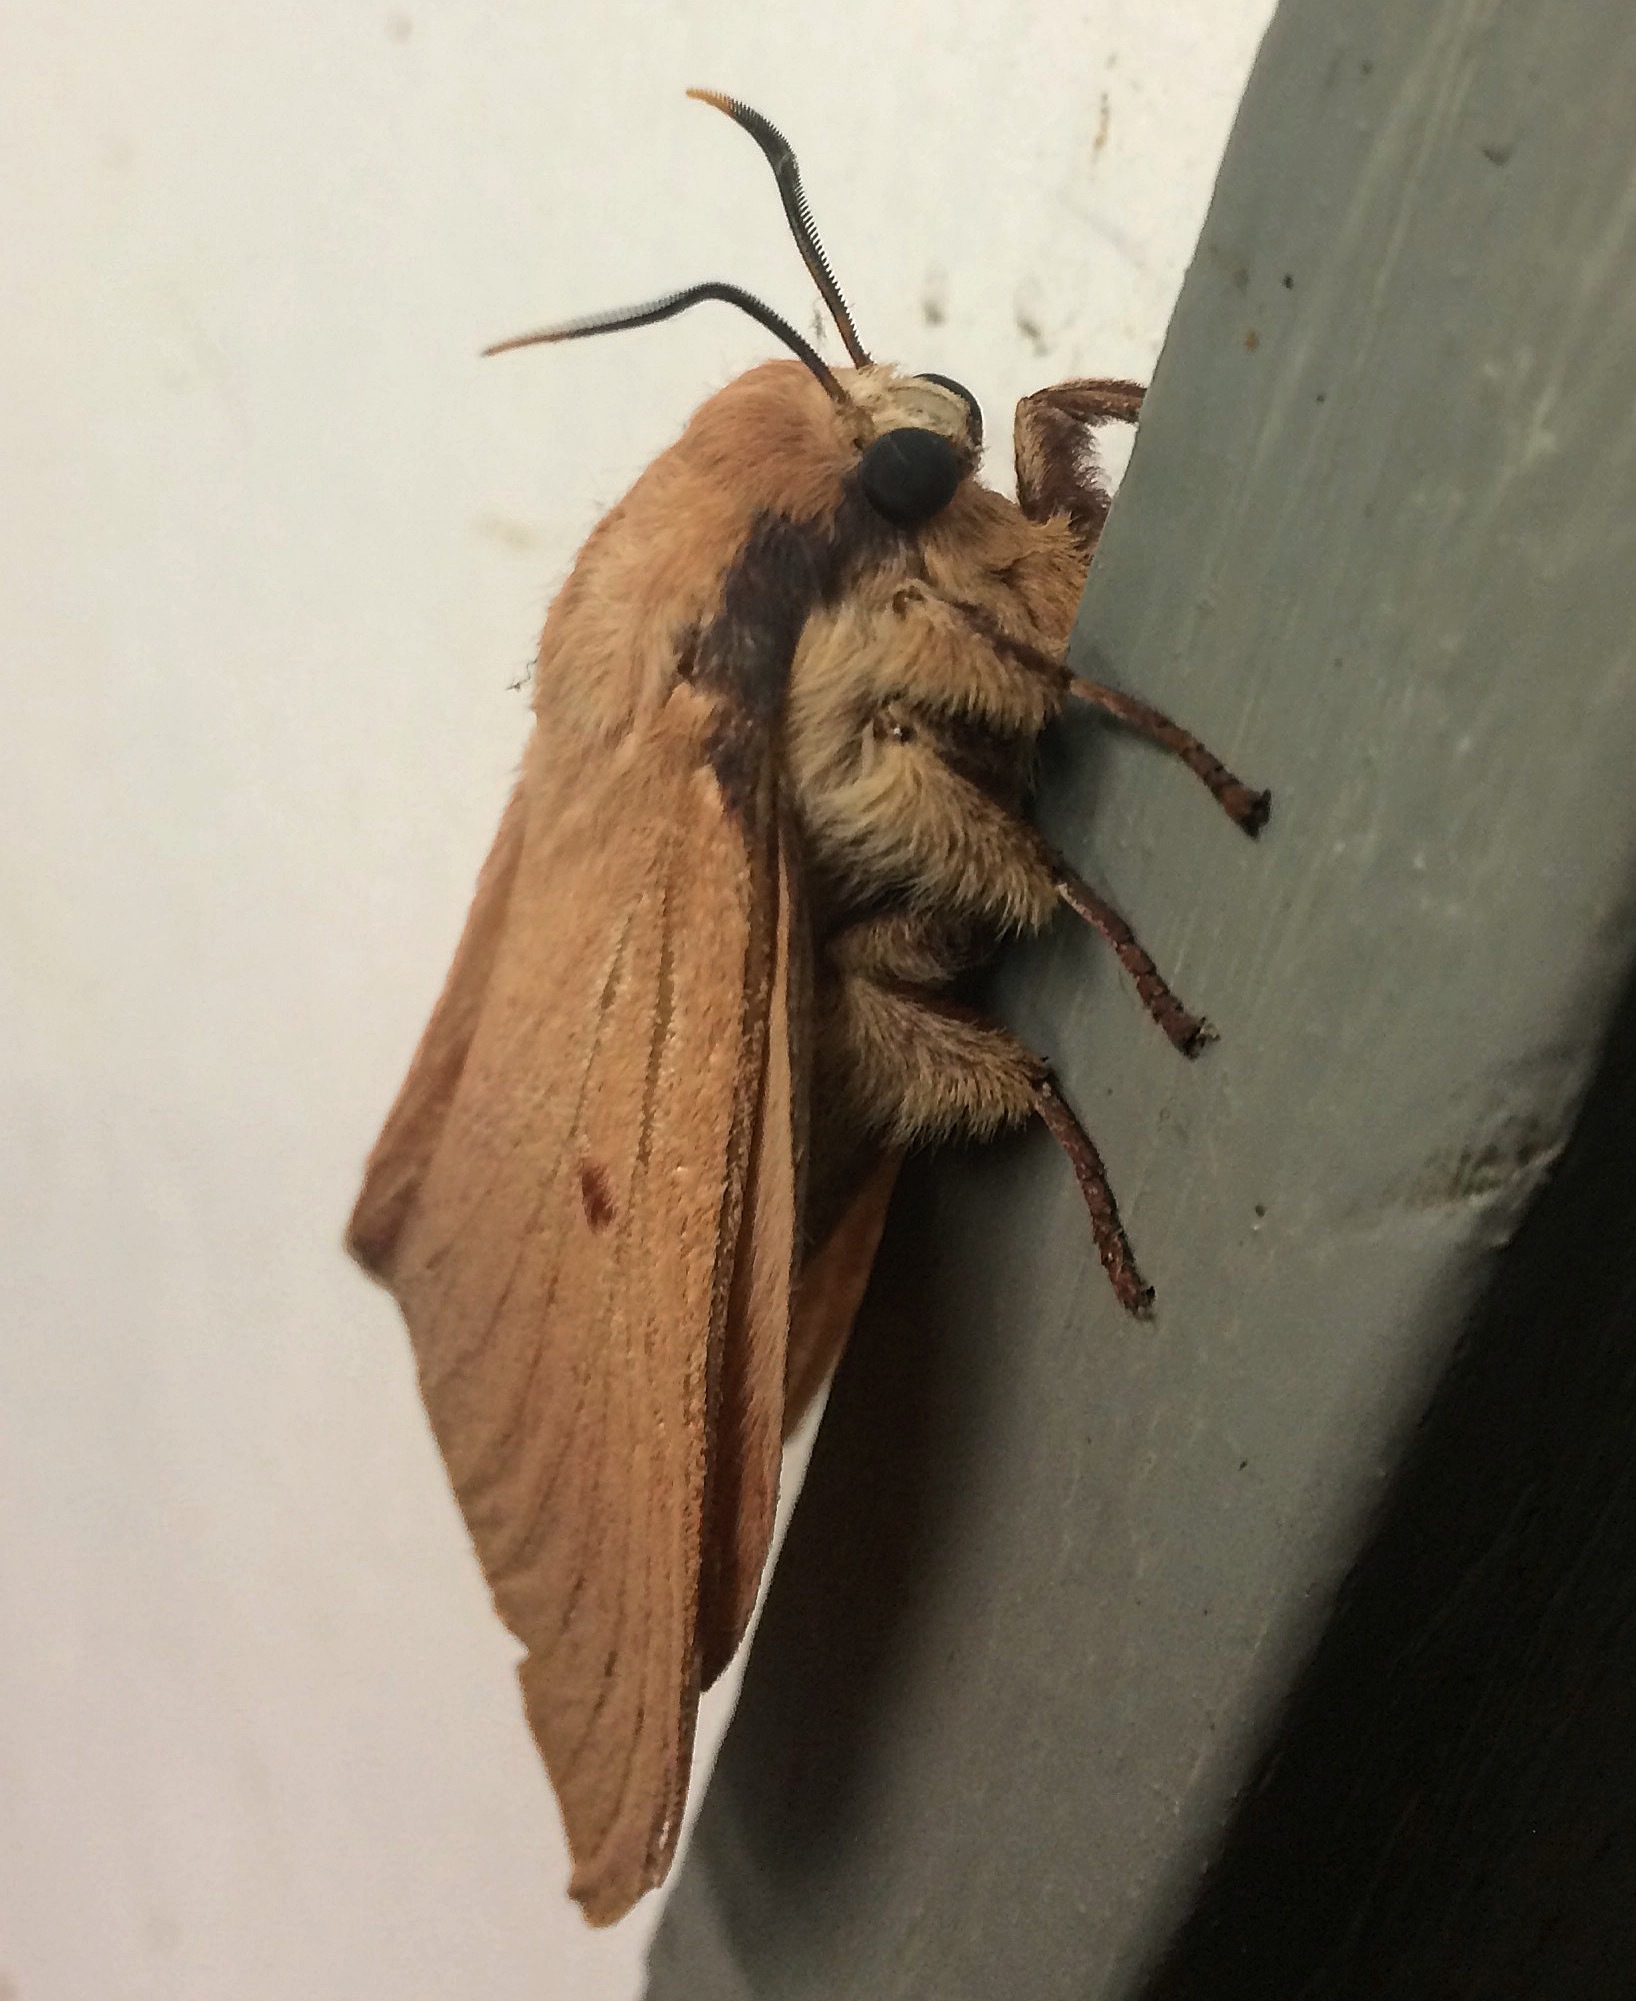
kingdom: Animalia
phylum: Arthropoda
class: Insecta
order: Lepidoptera
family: Lasiocampidae
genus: Entometa
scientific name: Entometa chlorosacca
